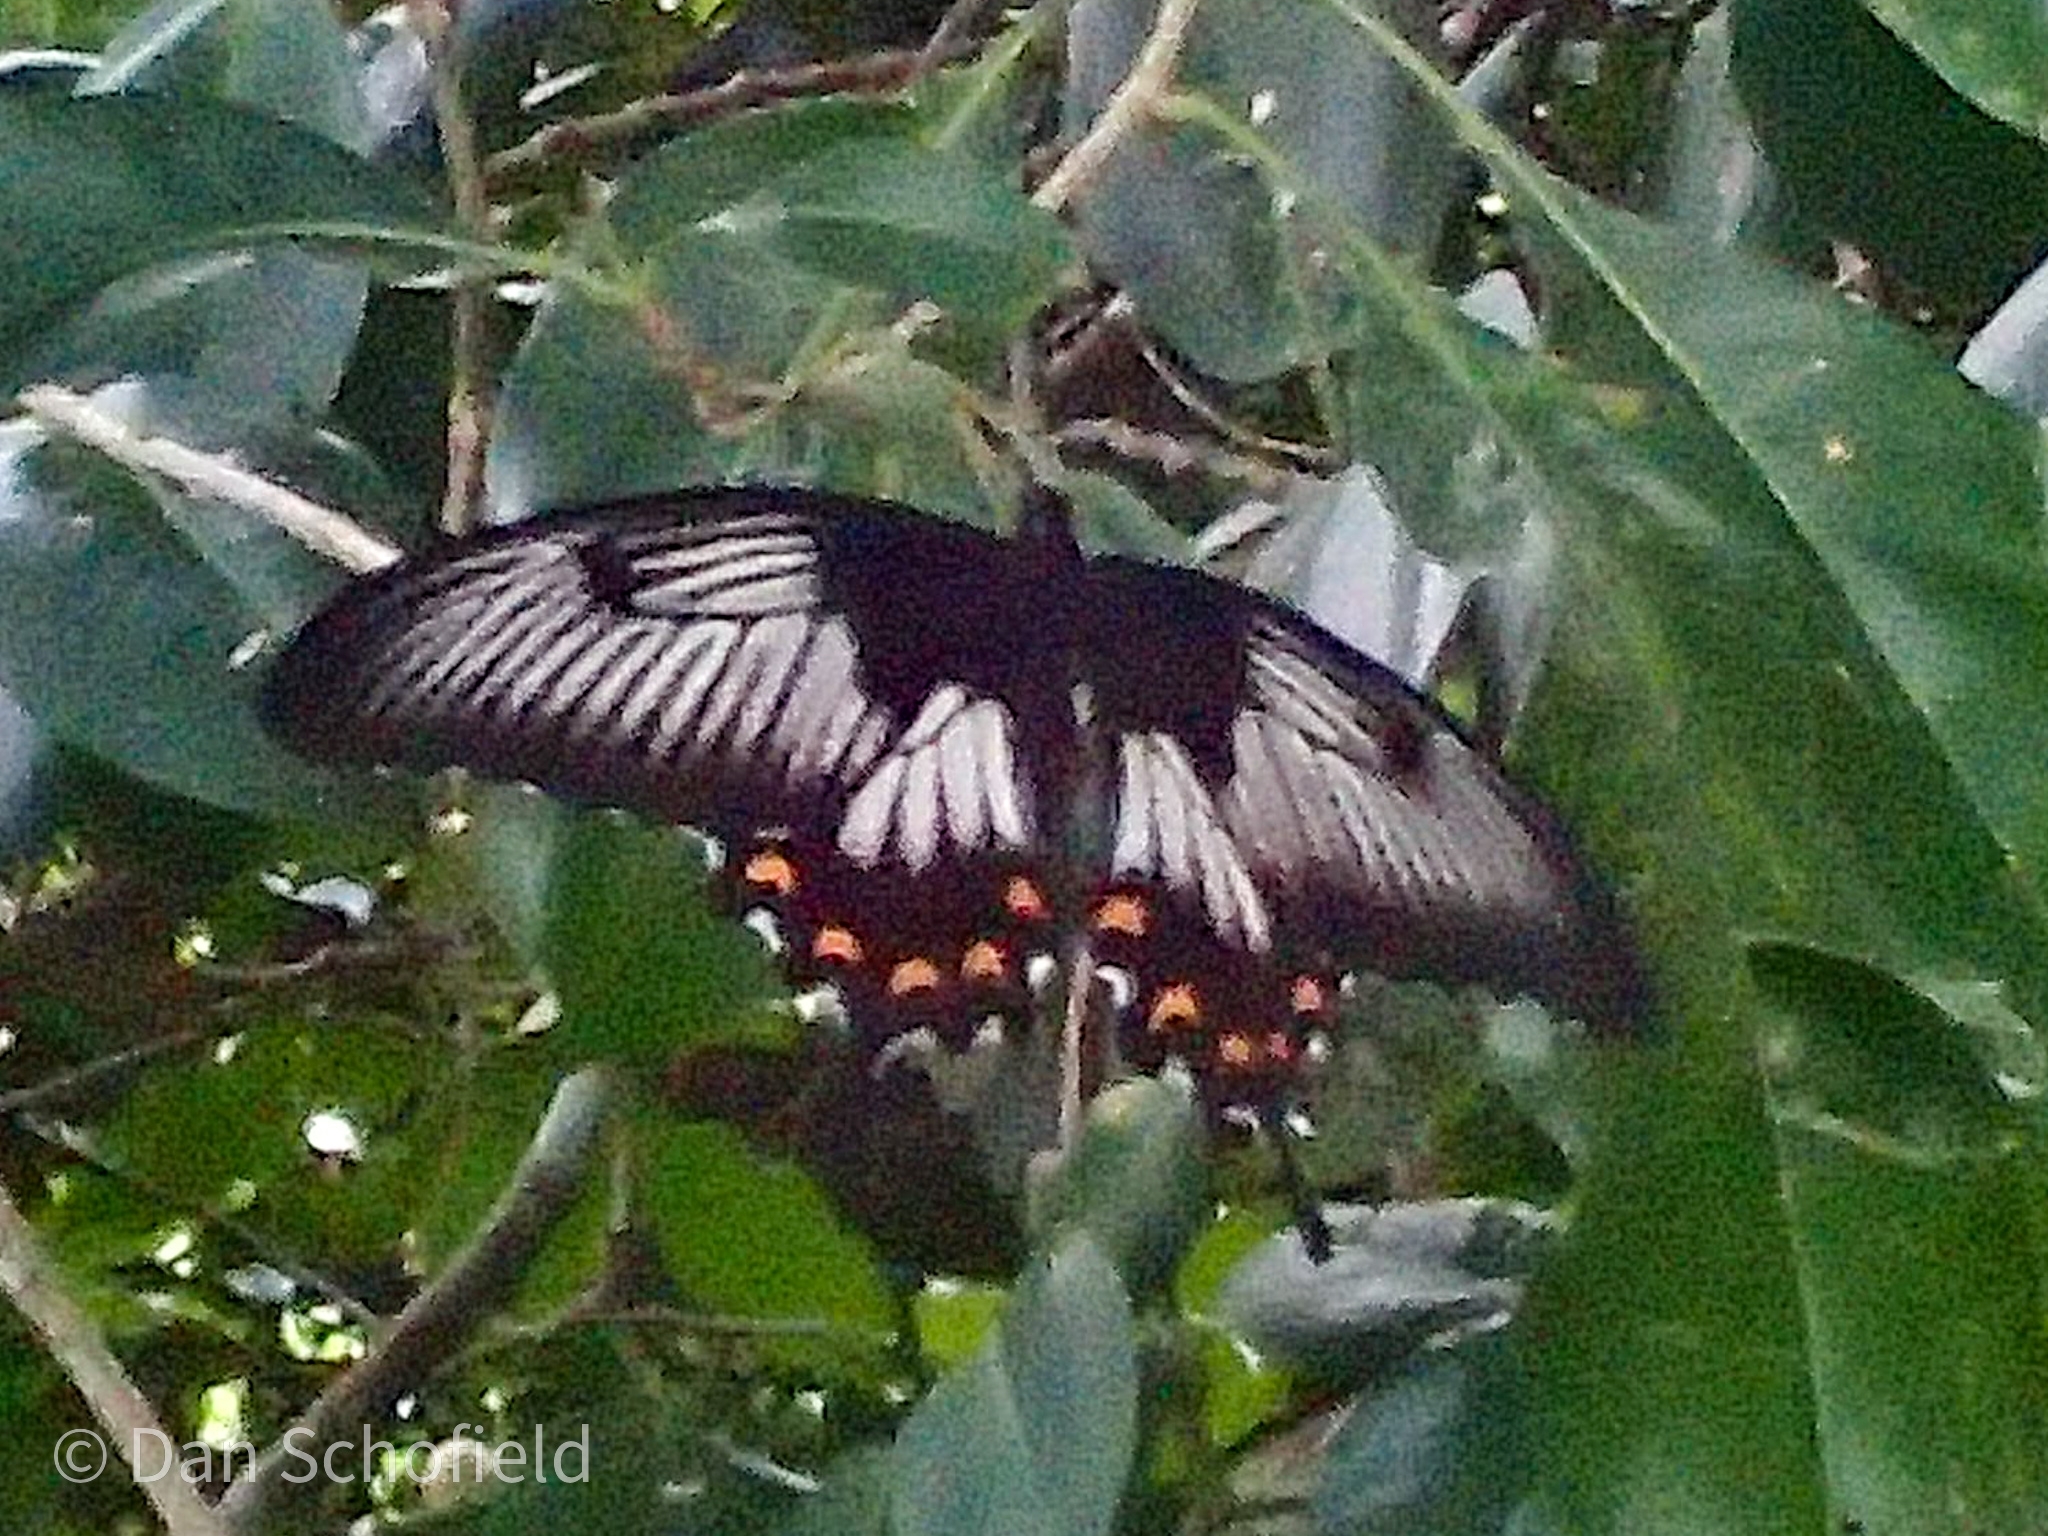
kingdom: Animalia
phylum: Arthropoda
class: Insecta
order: Lepidoptera
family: Papilionidae
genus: Papilio
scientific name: Papilio ascalaphus
